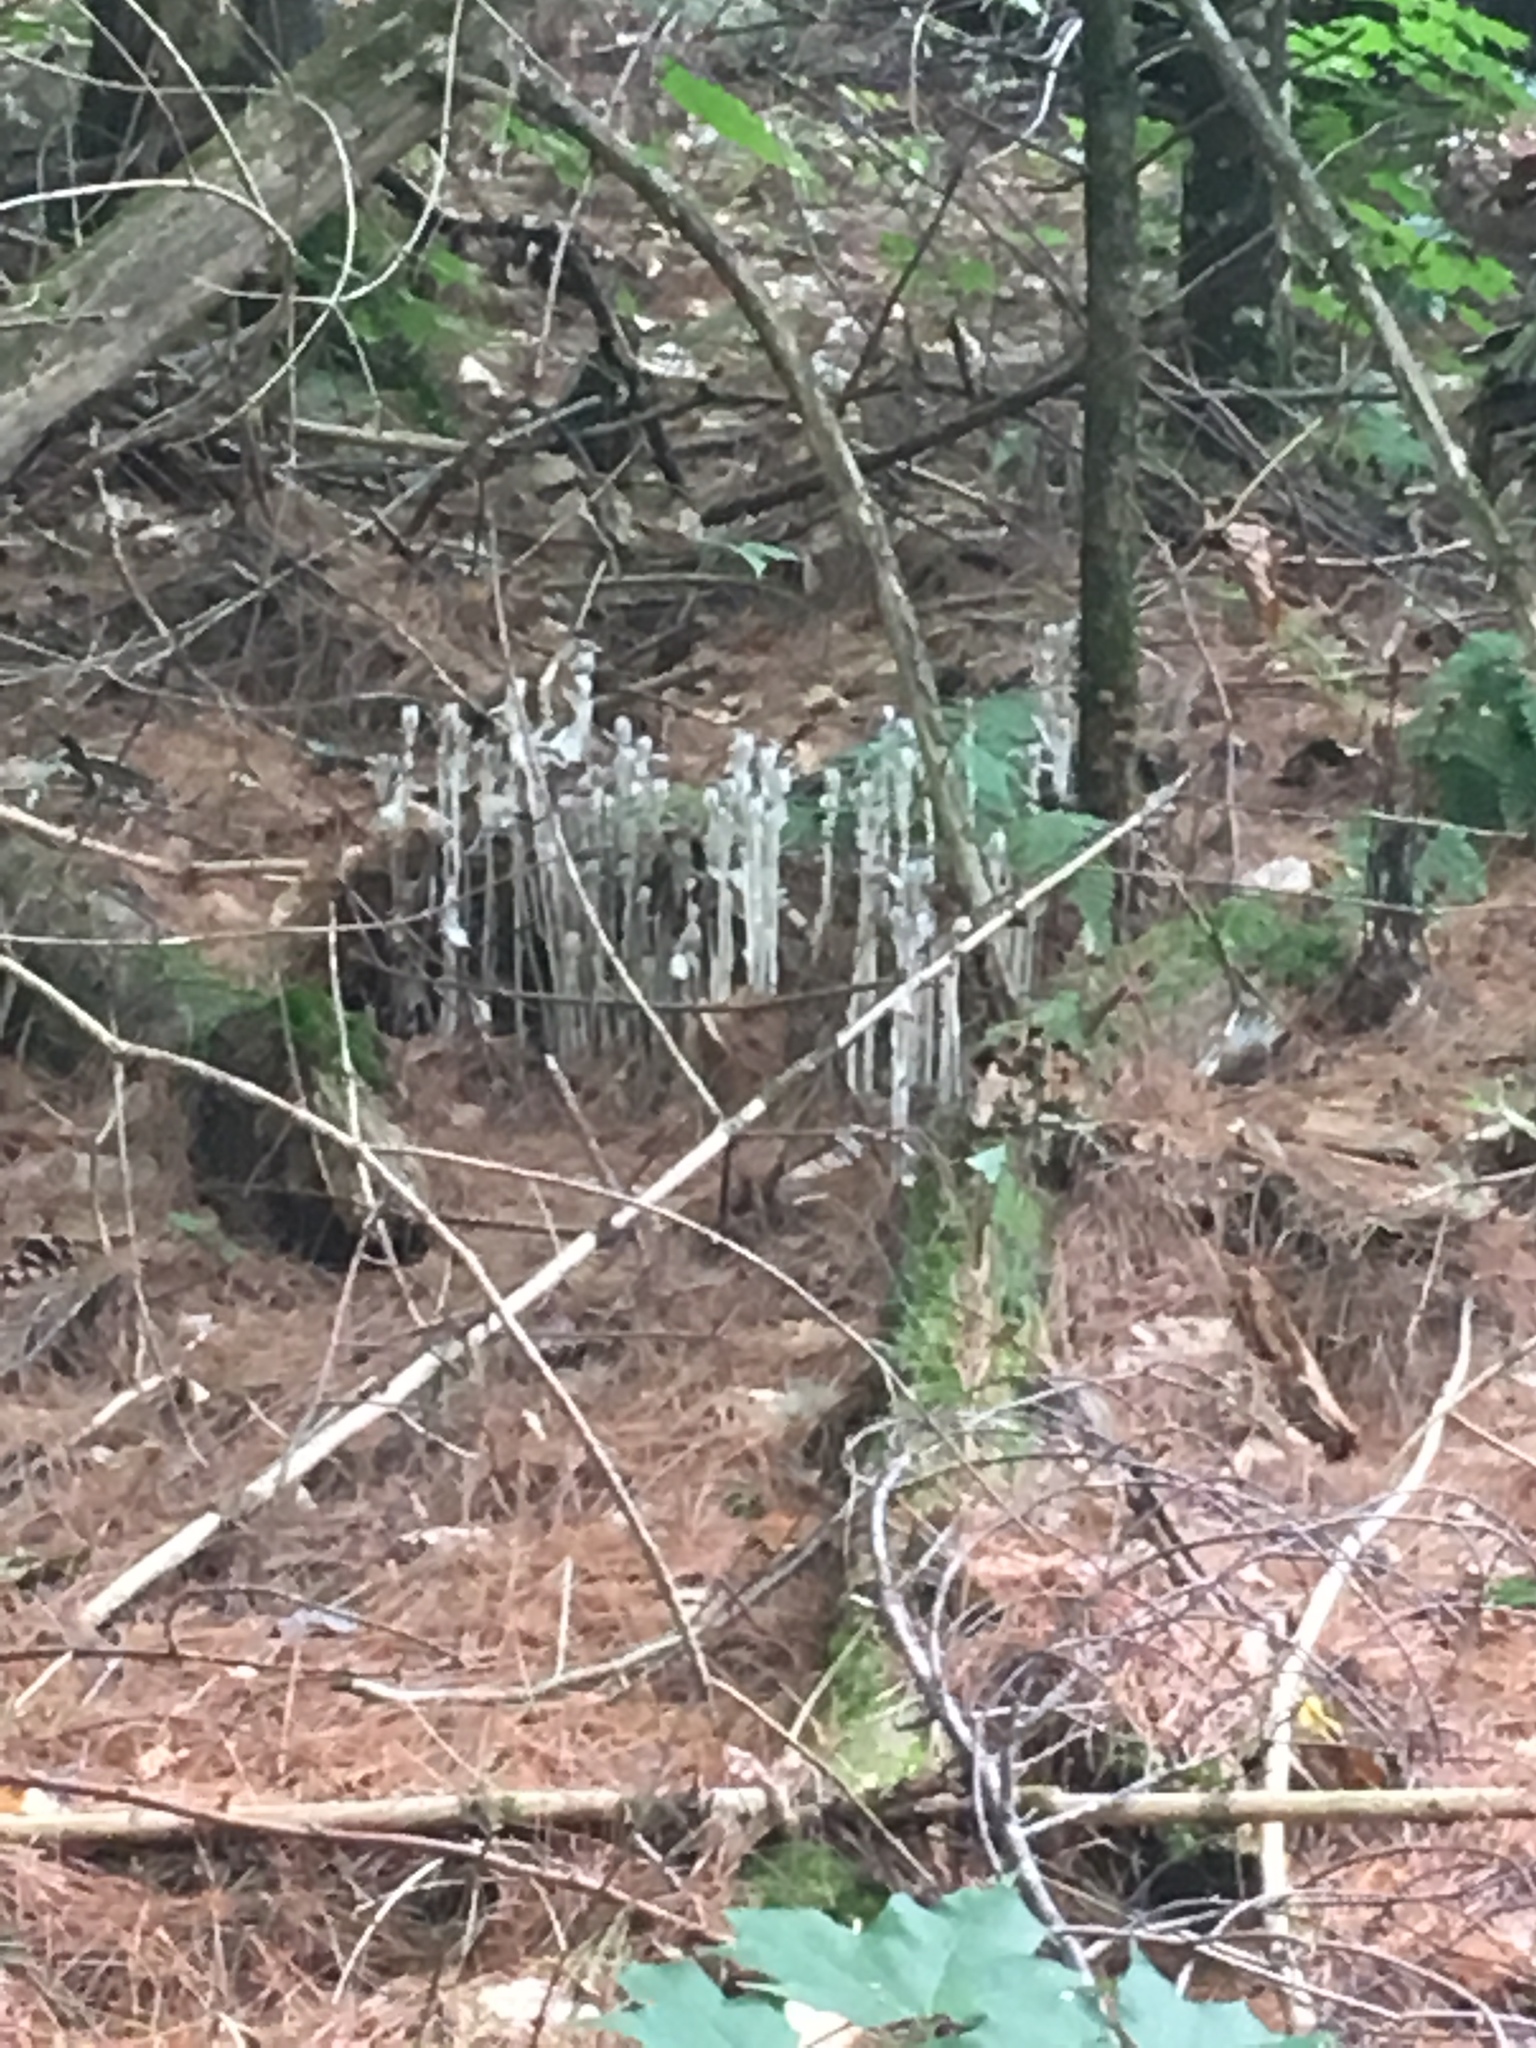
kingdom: Plantae
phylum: Tracheophyta
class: Magnoliopsida
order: Ericales
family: Ericaceae
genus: Monotropa
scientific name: Monotropa uniflora
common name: Convulsion root
